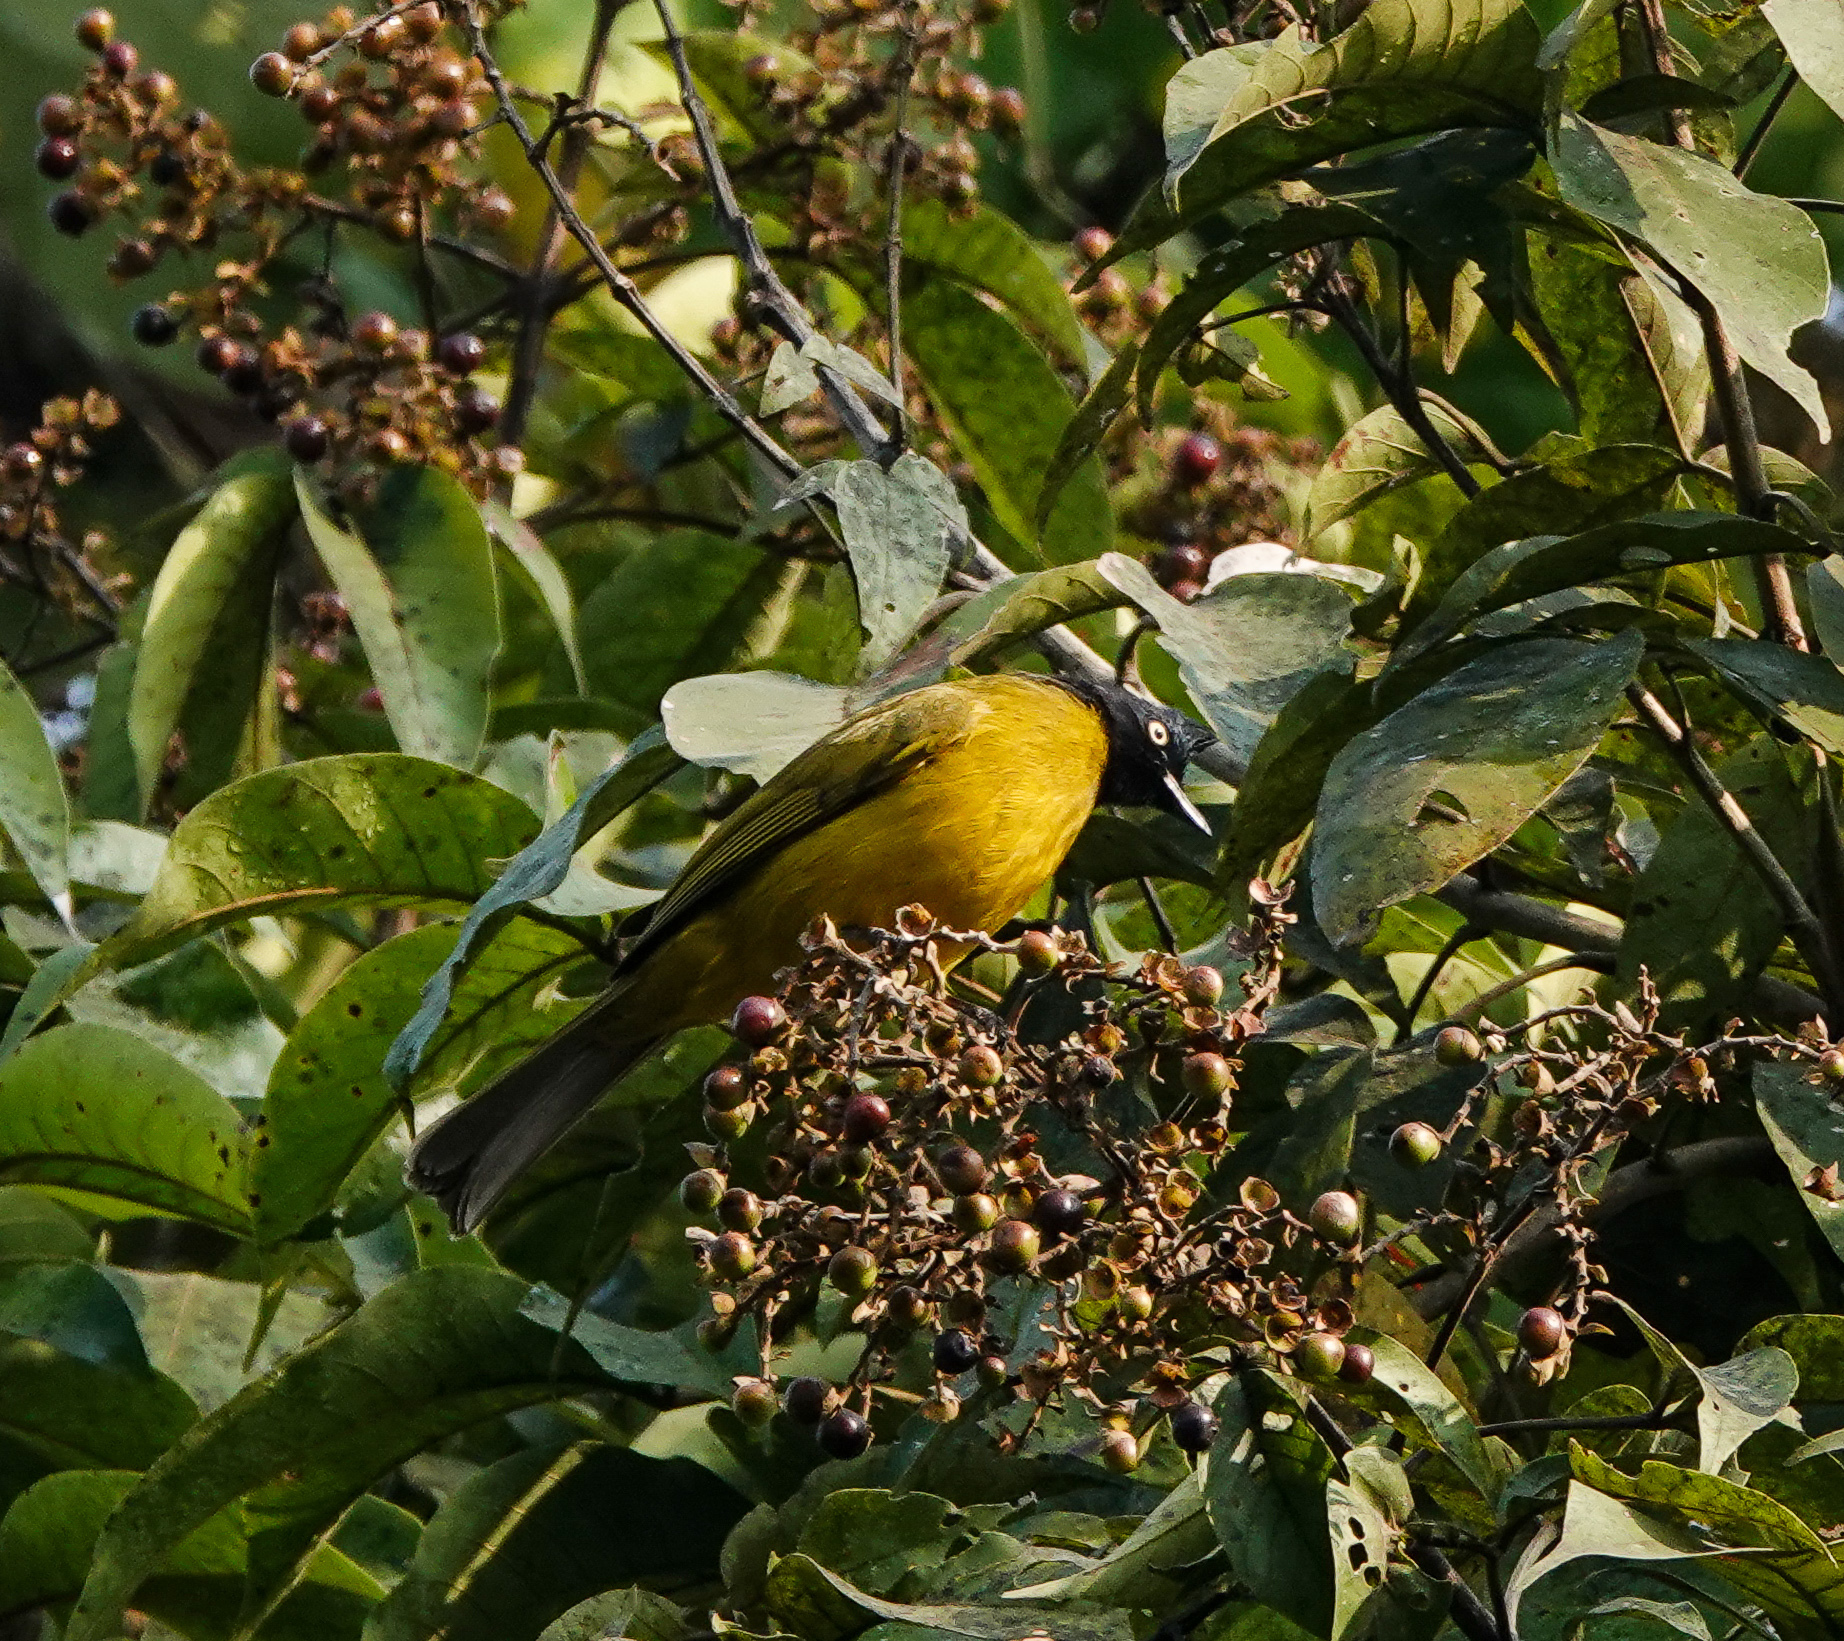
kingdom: Animalia
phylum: Chordata
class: Aves
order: Passeriformes
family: Pycnonotidae
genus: Pycnonotus
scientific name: Pycnonotus flaviventris
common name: Black-crested bulbul
